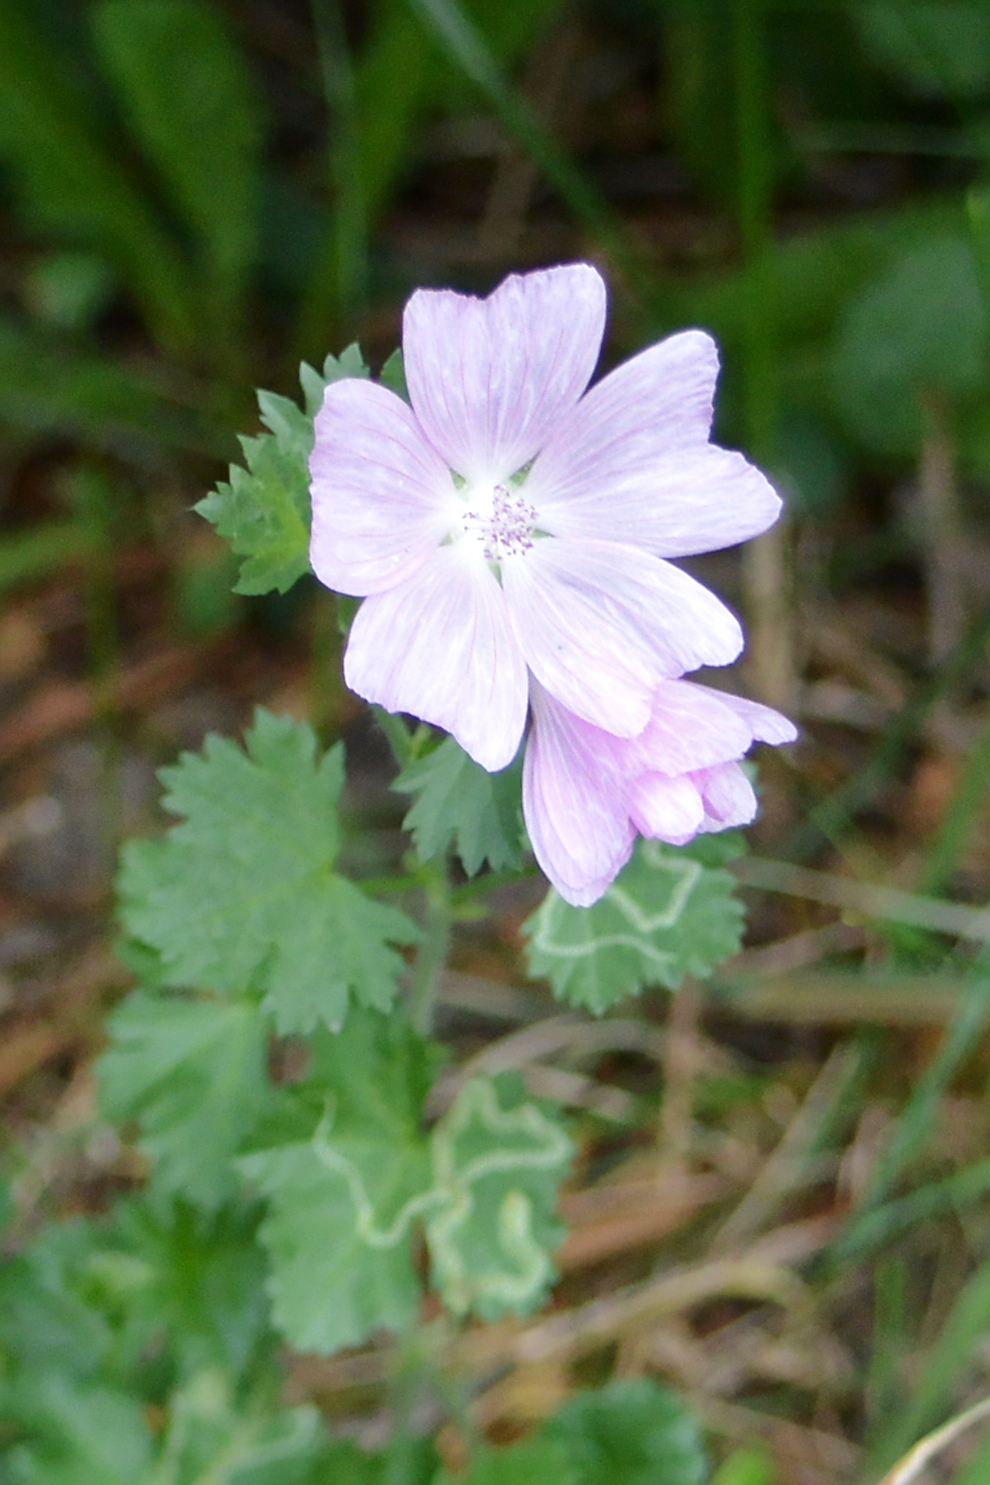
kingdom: Plantae
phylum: Tracheophyta
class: Magnoliopsida
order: Malvales
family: Malvaceae
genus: Malva
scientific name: Malva moschata
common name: Musk mallow
